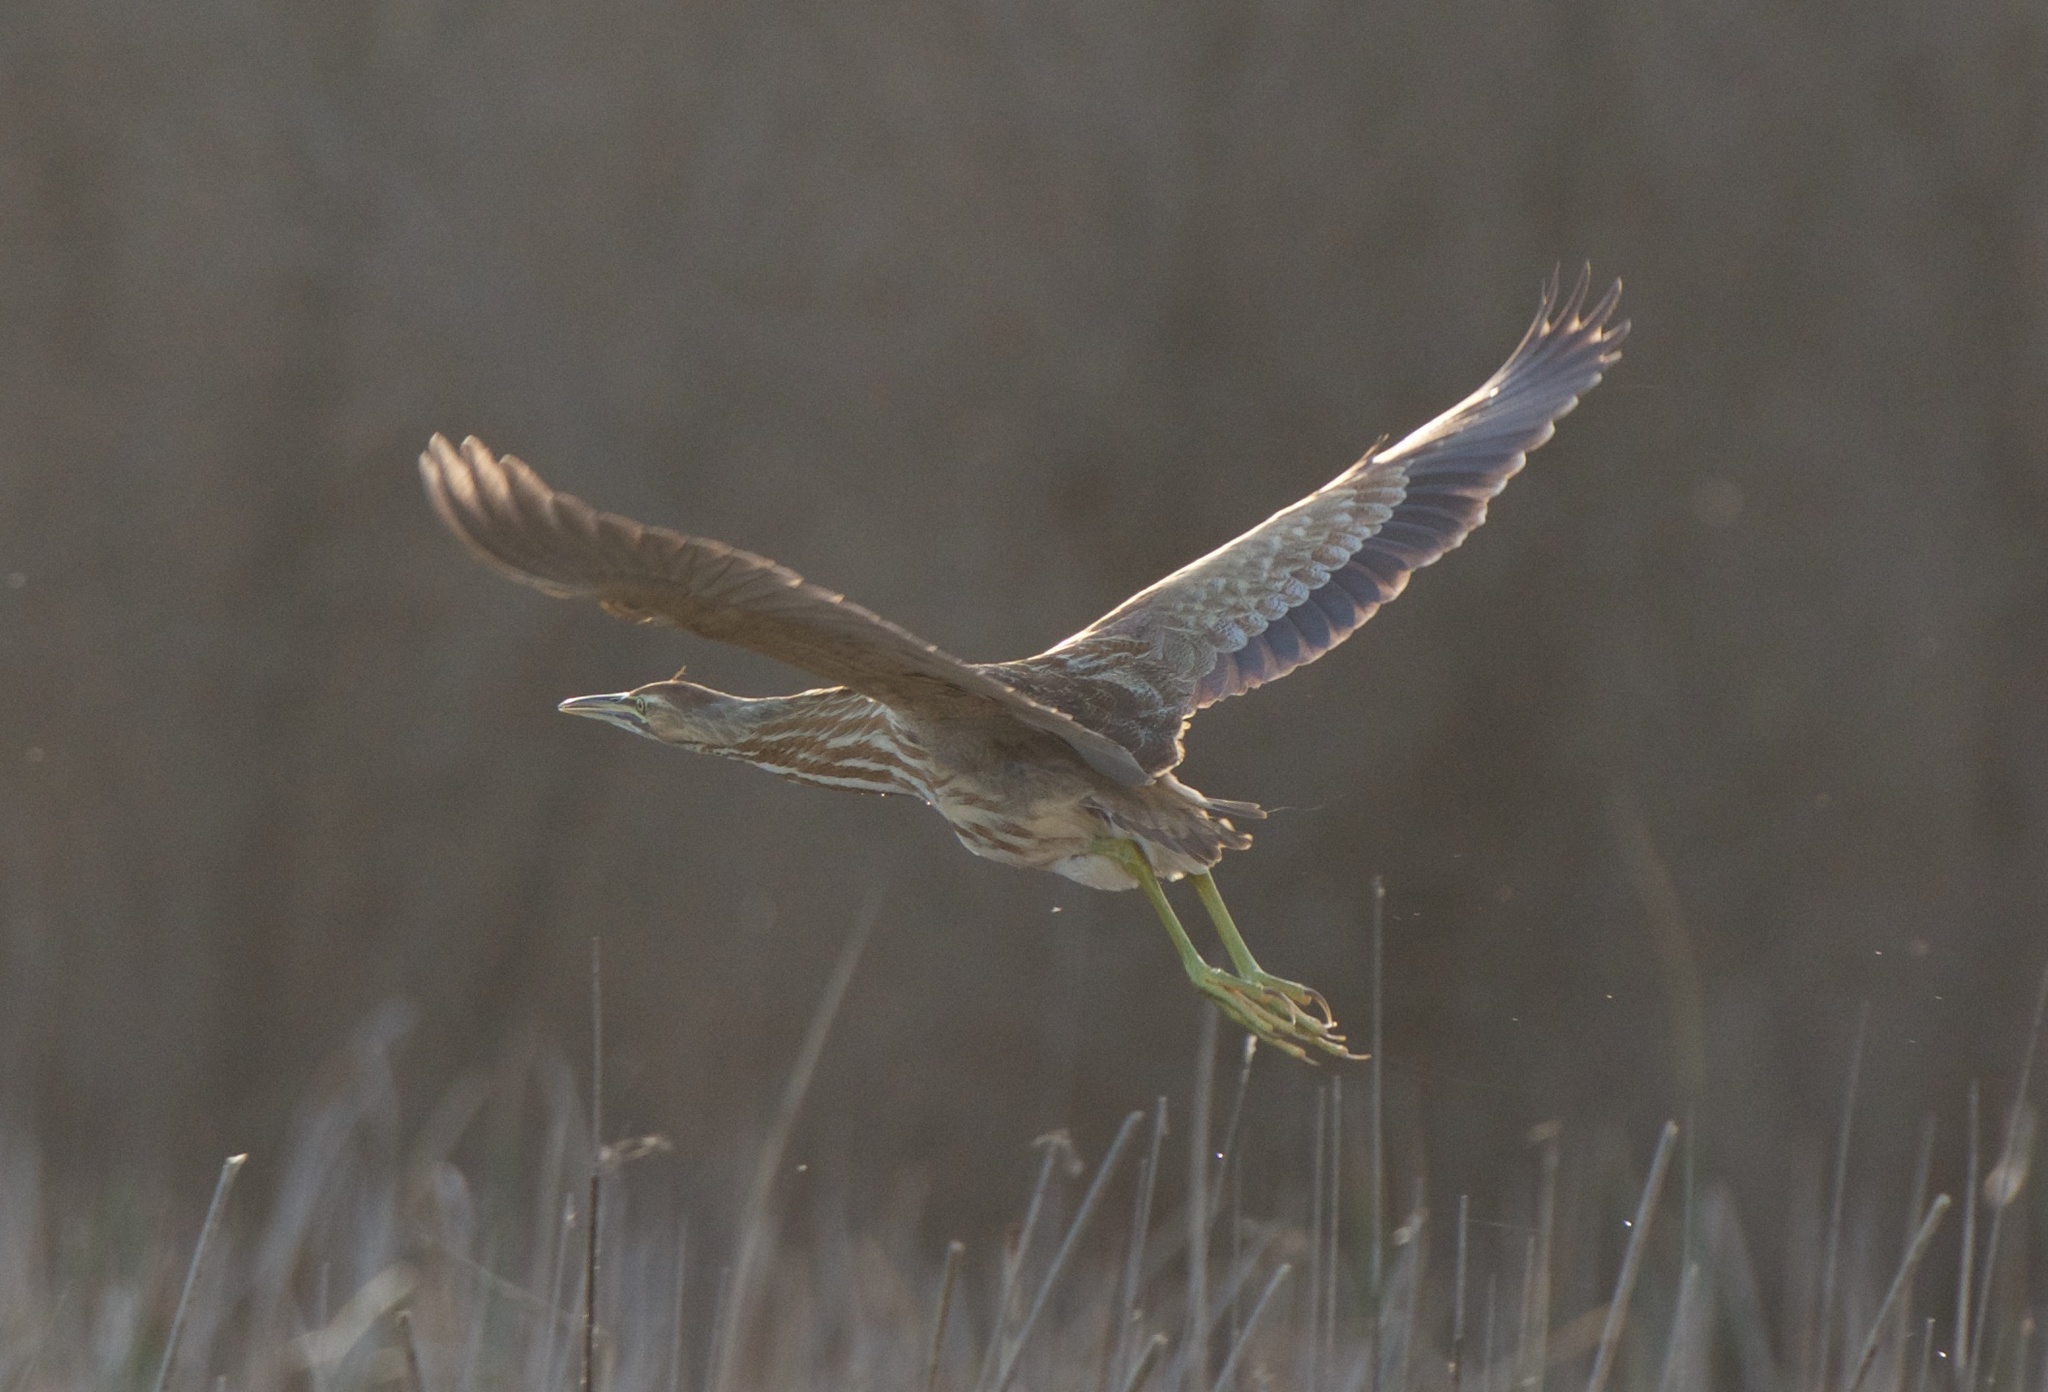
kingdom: Animalia
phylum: Chordata
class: Aves
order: Pelecaniformes
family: Ardeidae
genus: Botaurus
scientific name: Botaurus lentiginosus
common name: American bittern
